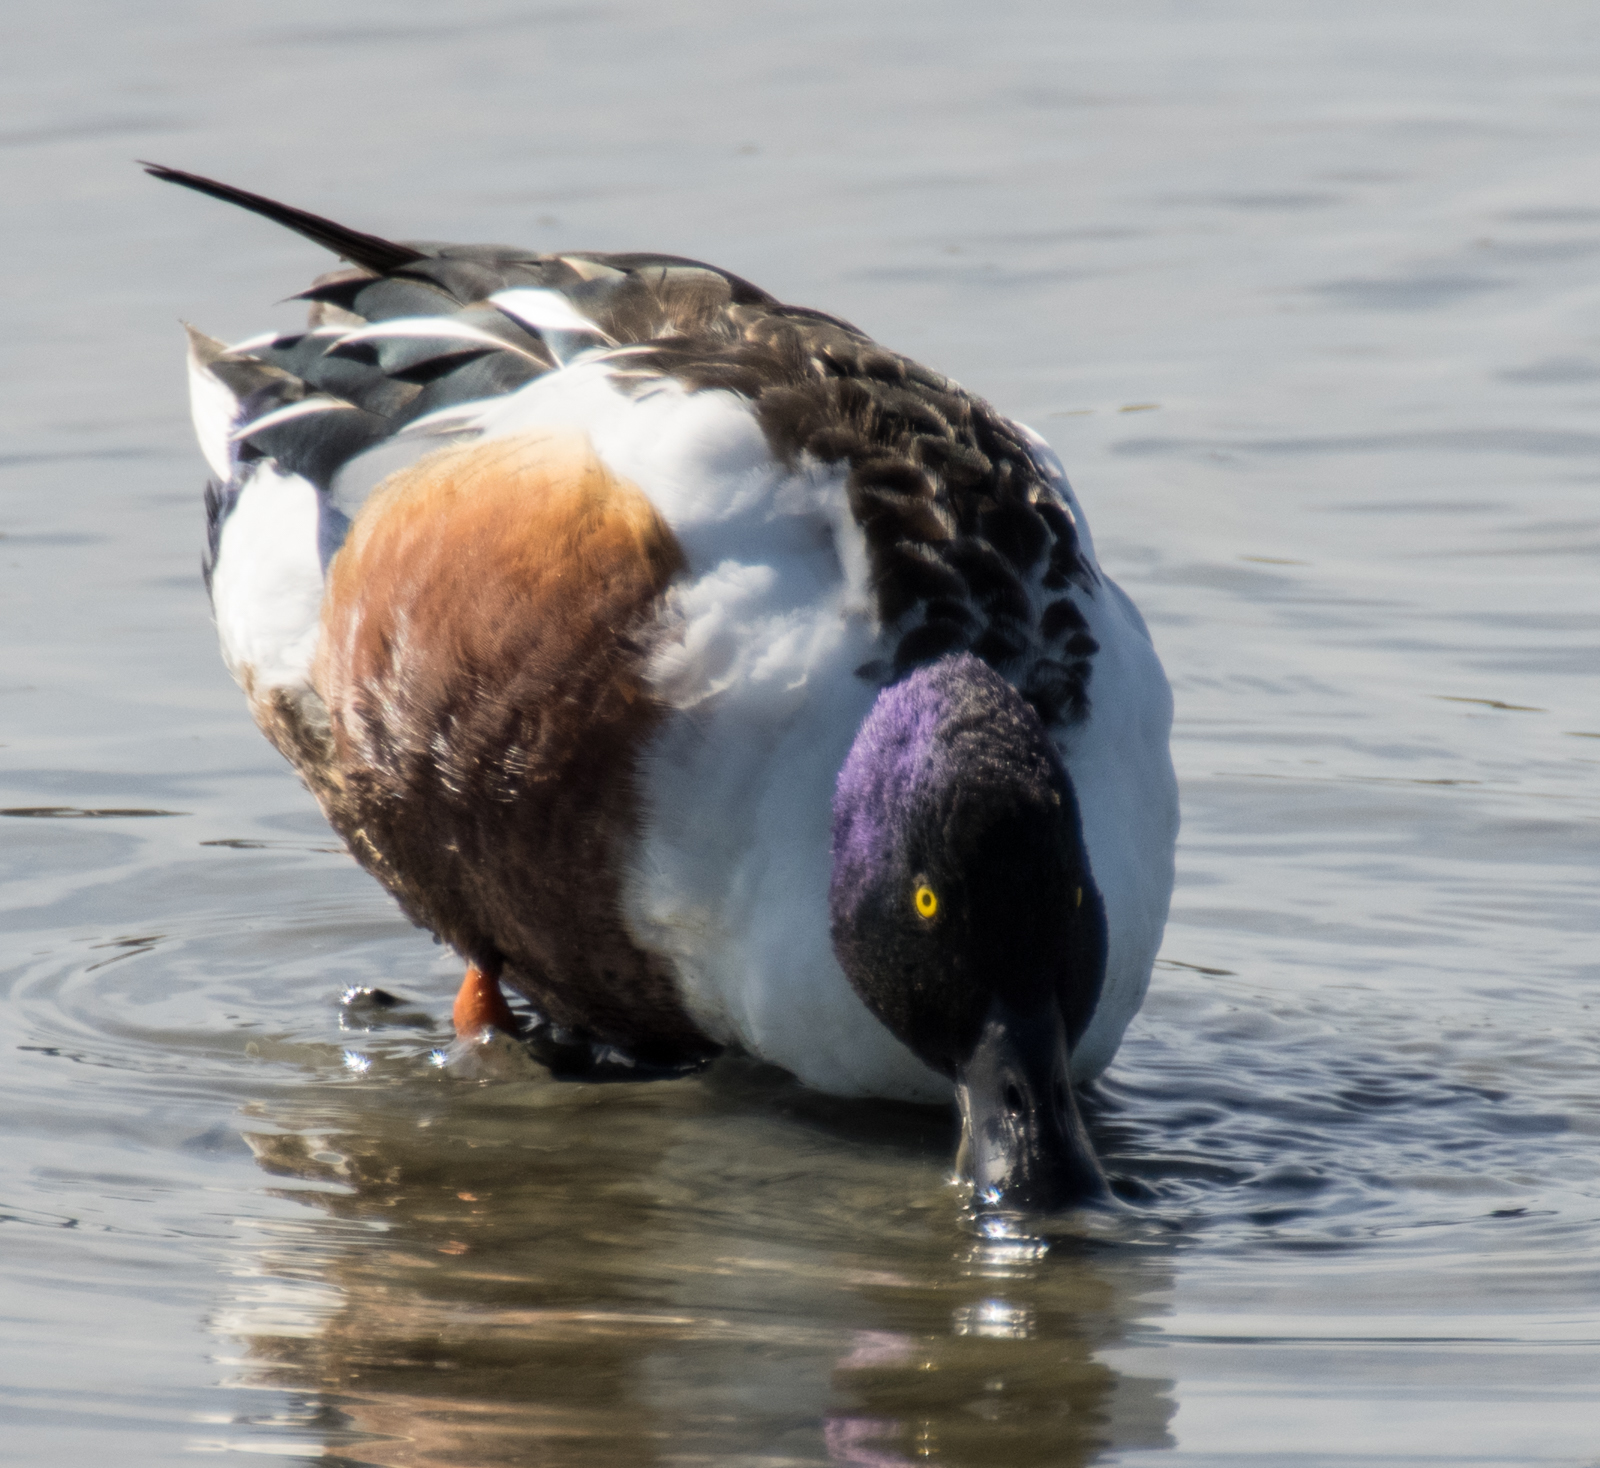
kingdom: Animalia
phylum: Chordata
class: Aves
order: Anseriformes
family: Anatidae
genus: Spatula
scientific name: Spatula clypeata
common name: Northern shoveler
